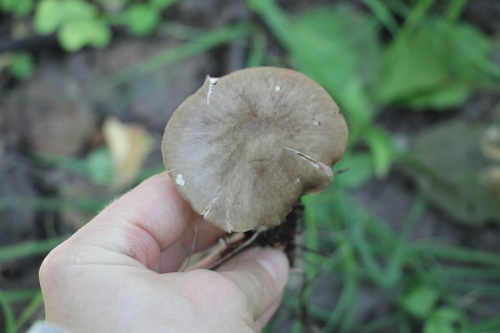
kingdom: Fungi
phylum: Basidiomycota
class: Agaricomycetes
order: Agaricales
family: Pluteaceae
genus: Pluteus
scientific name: Pluteus
